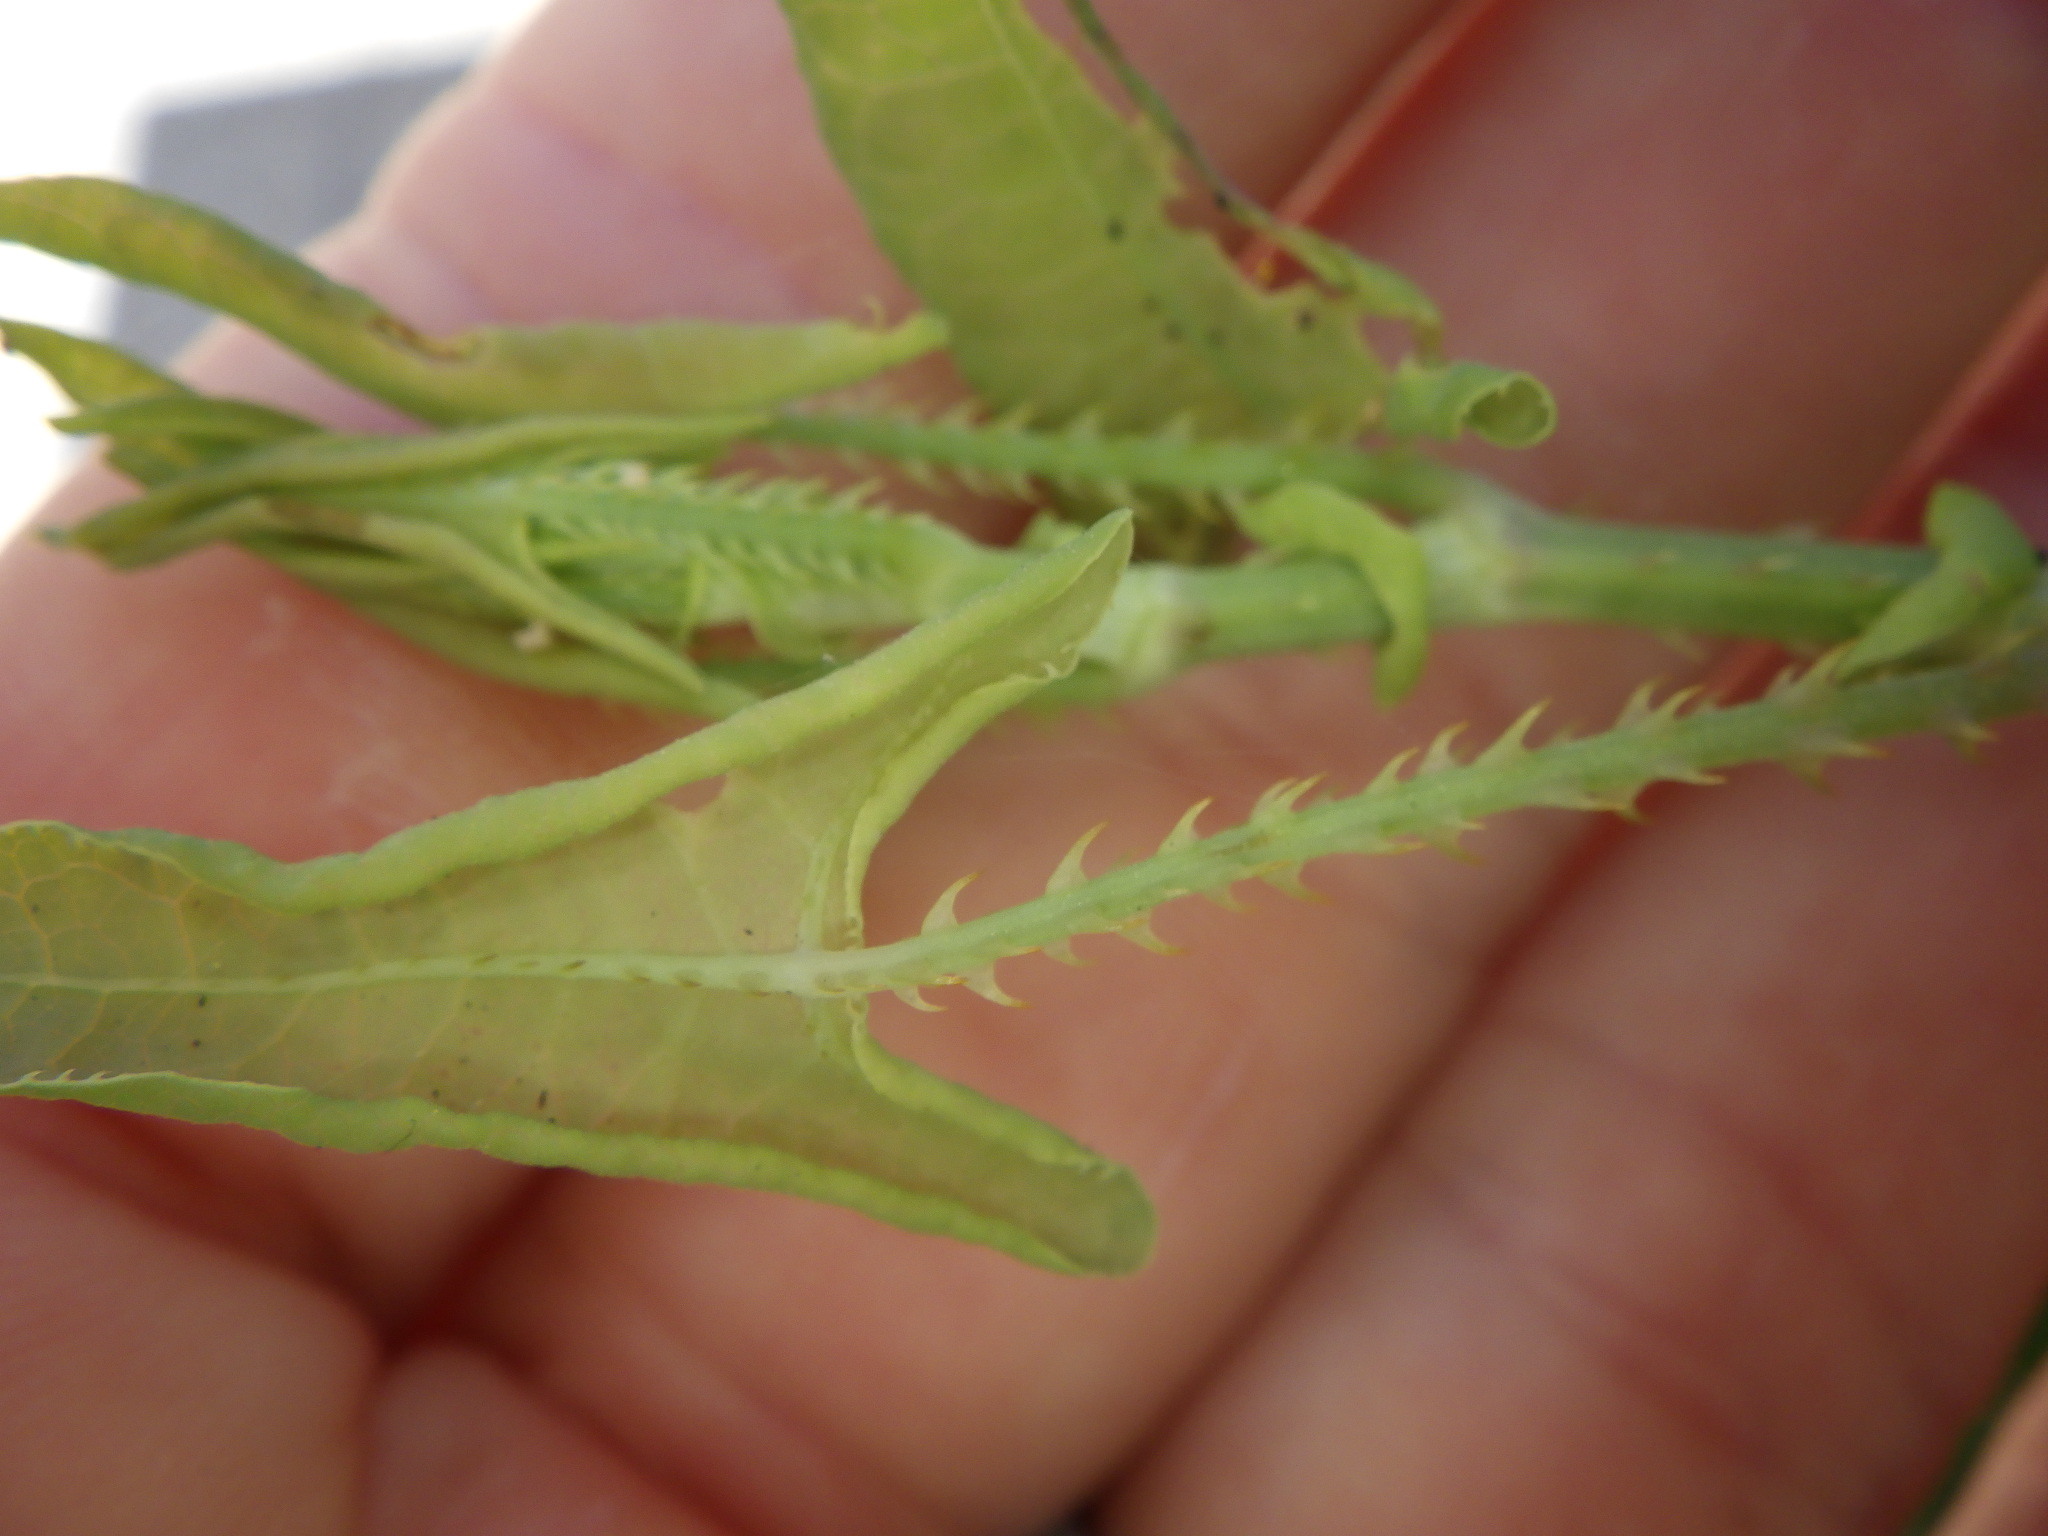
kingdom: Plantae
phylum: Tracheophyta
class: Magnoliopsida
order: Caryophyllales
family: Polygonaceae
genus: Persicaria
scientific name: Persicaria perfoliata
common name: Asiatic tearthumb
